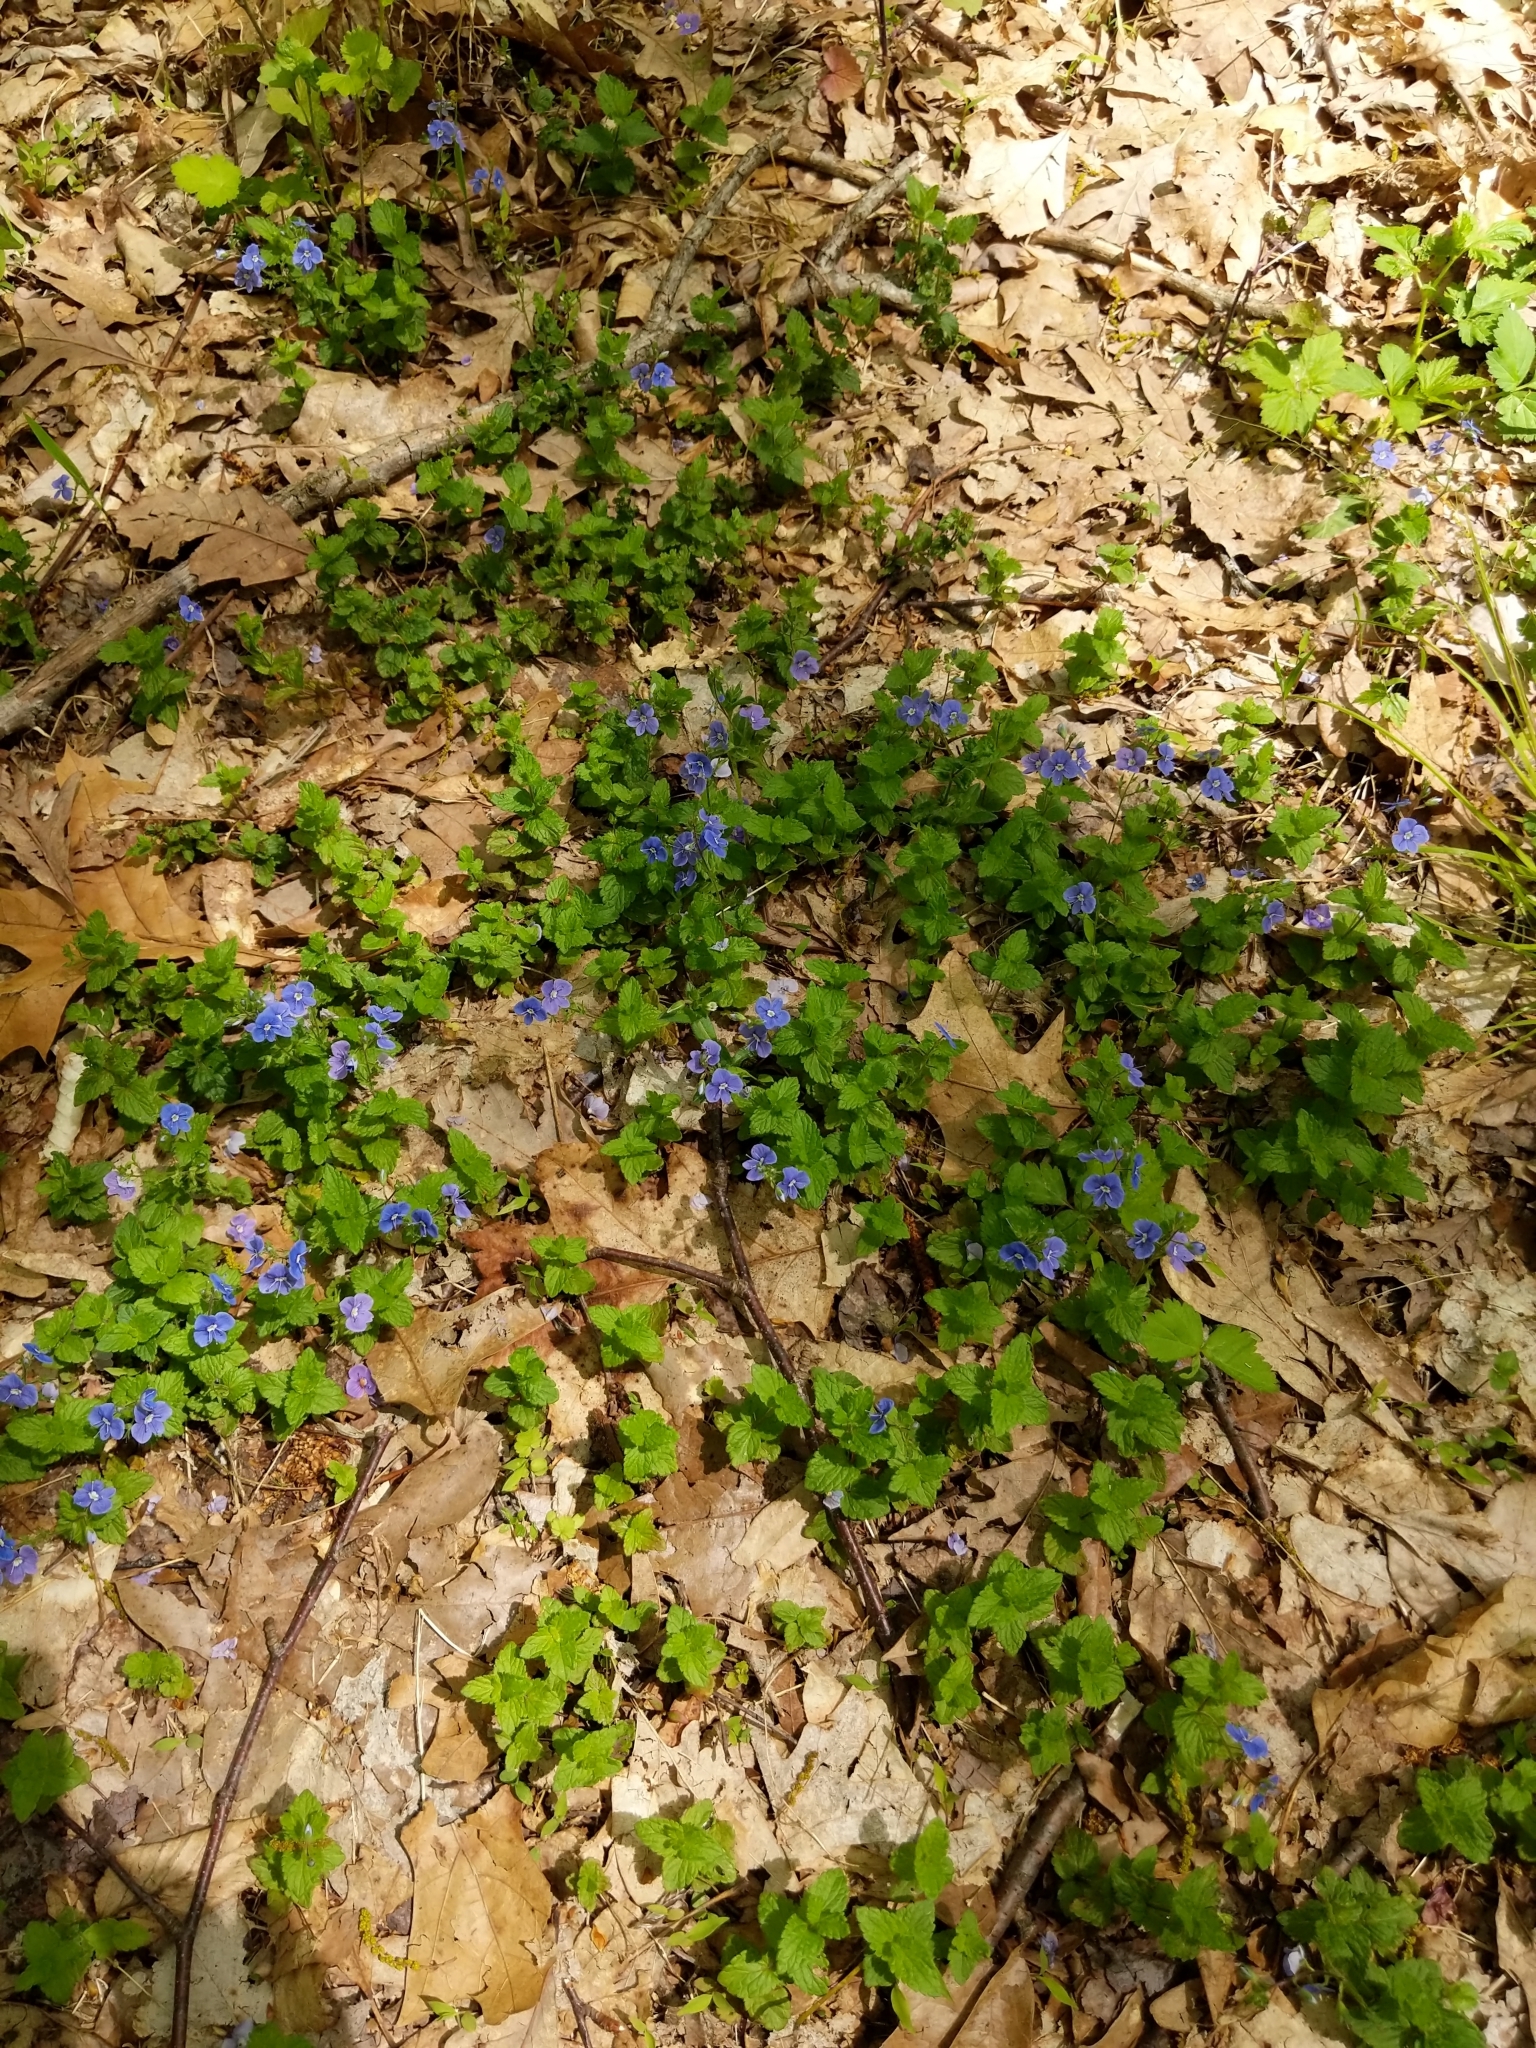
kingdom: Plantae
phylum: Tracheophyta
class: Magnoliopsida
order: Lamiales
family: Plantaginaceae
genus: Veronica
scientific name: Veronica chamaedrys
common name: Germander speedwell
